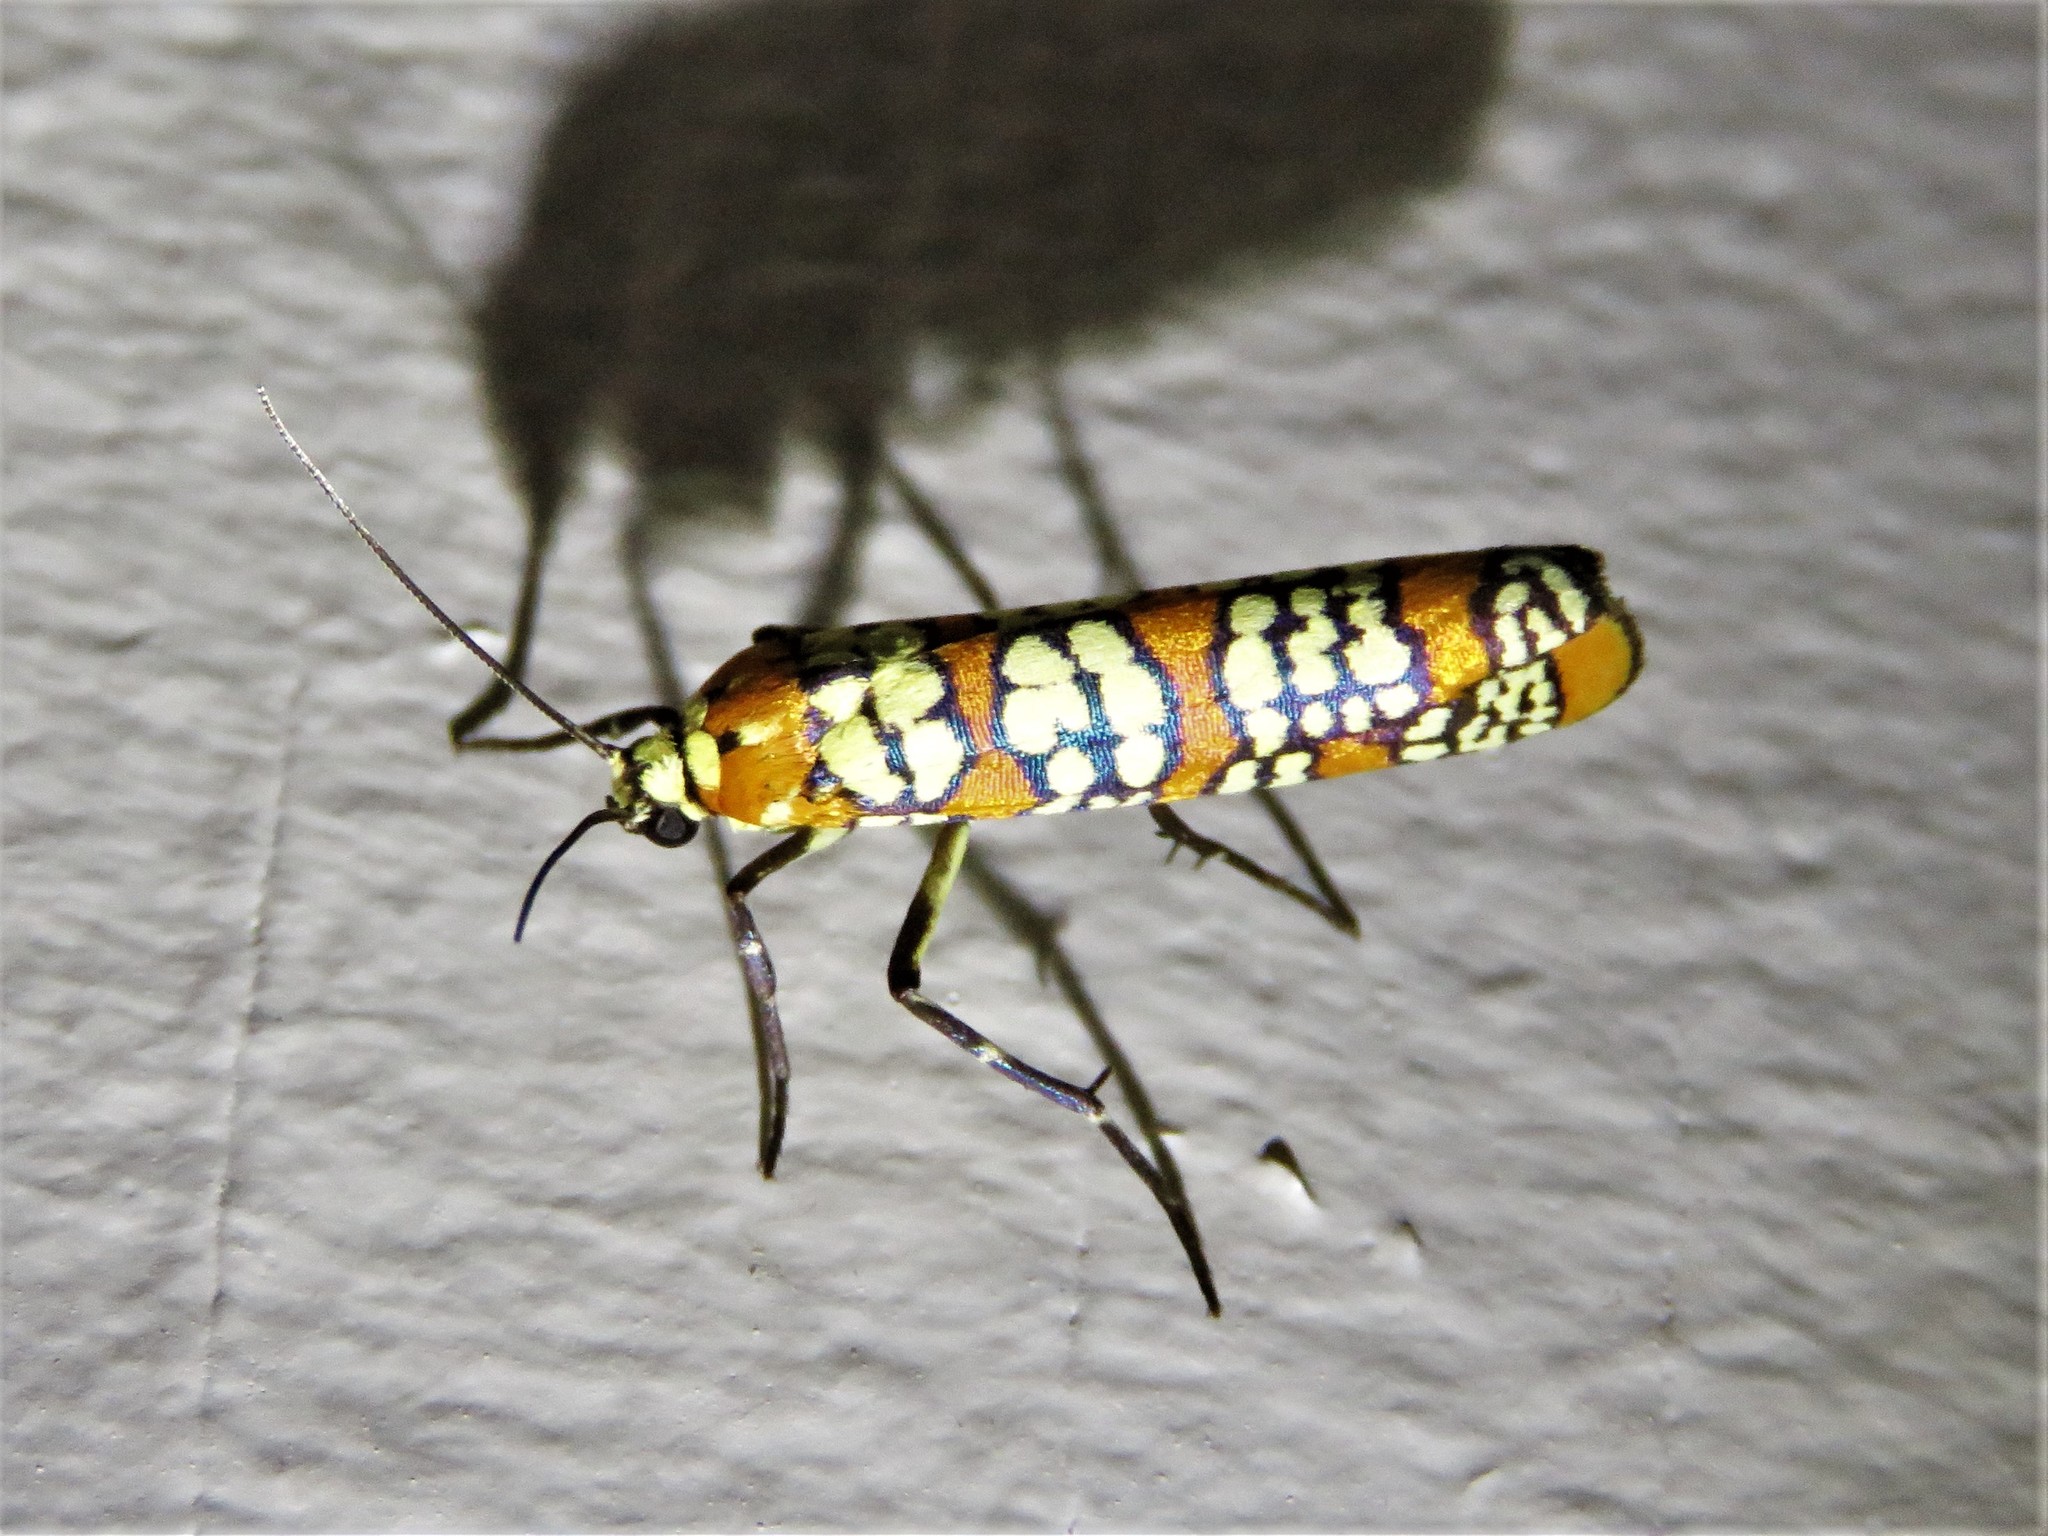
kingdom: Animalia
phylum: Arthropoda
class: Insecta
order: Lepidoptera
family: Attevidae
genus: Atteva
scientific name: Atteva punctella
